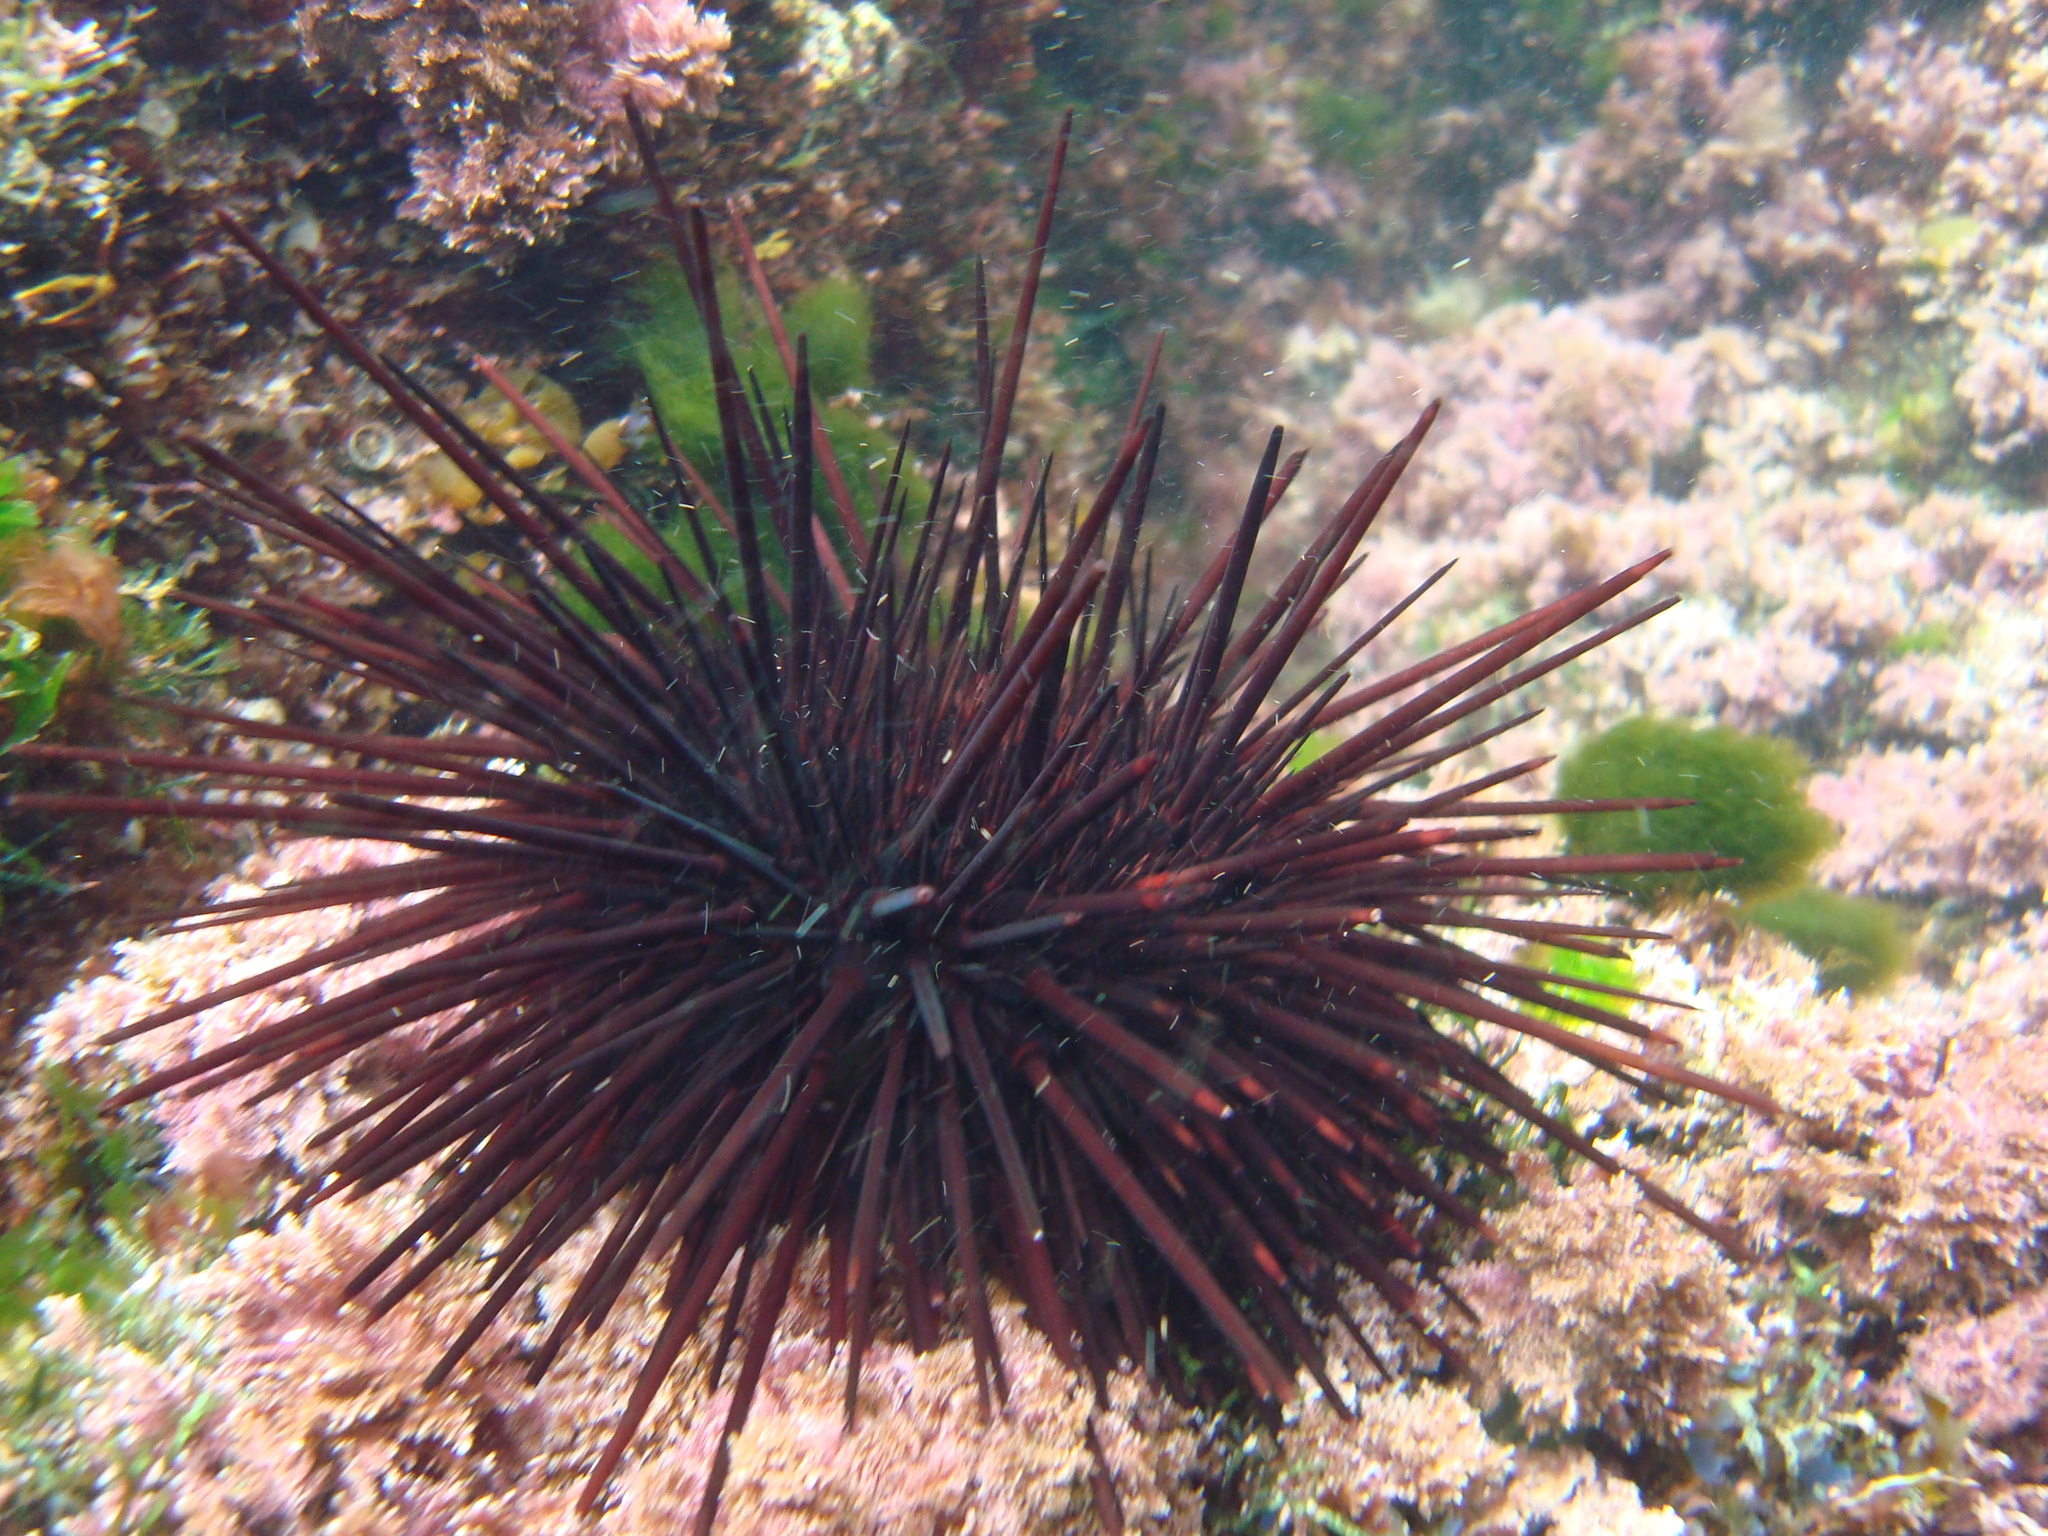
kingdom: Animalia
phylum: Echinodermata
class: Echinoidea
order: Diadematoida
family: Diadematidae
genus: Centrostephanus
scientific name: Centrostephanus rodgersii
